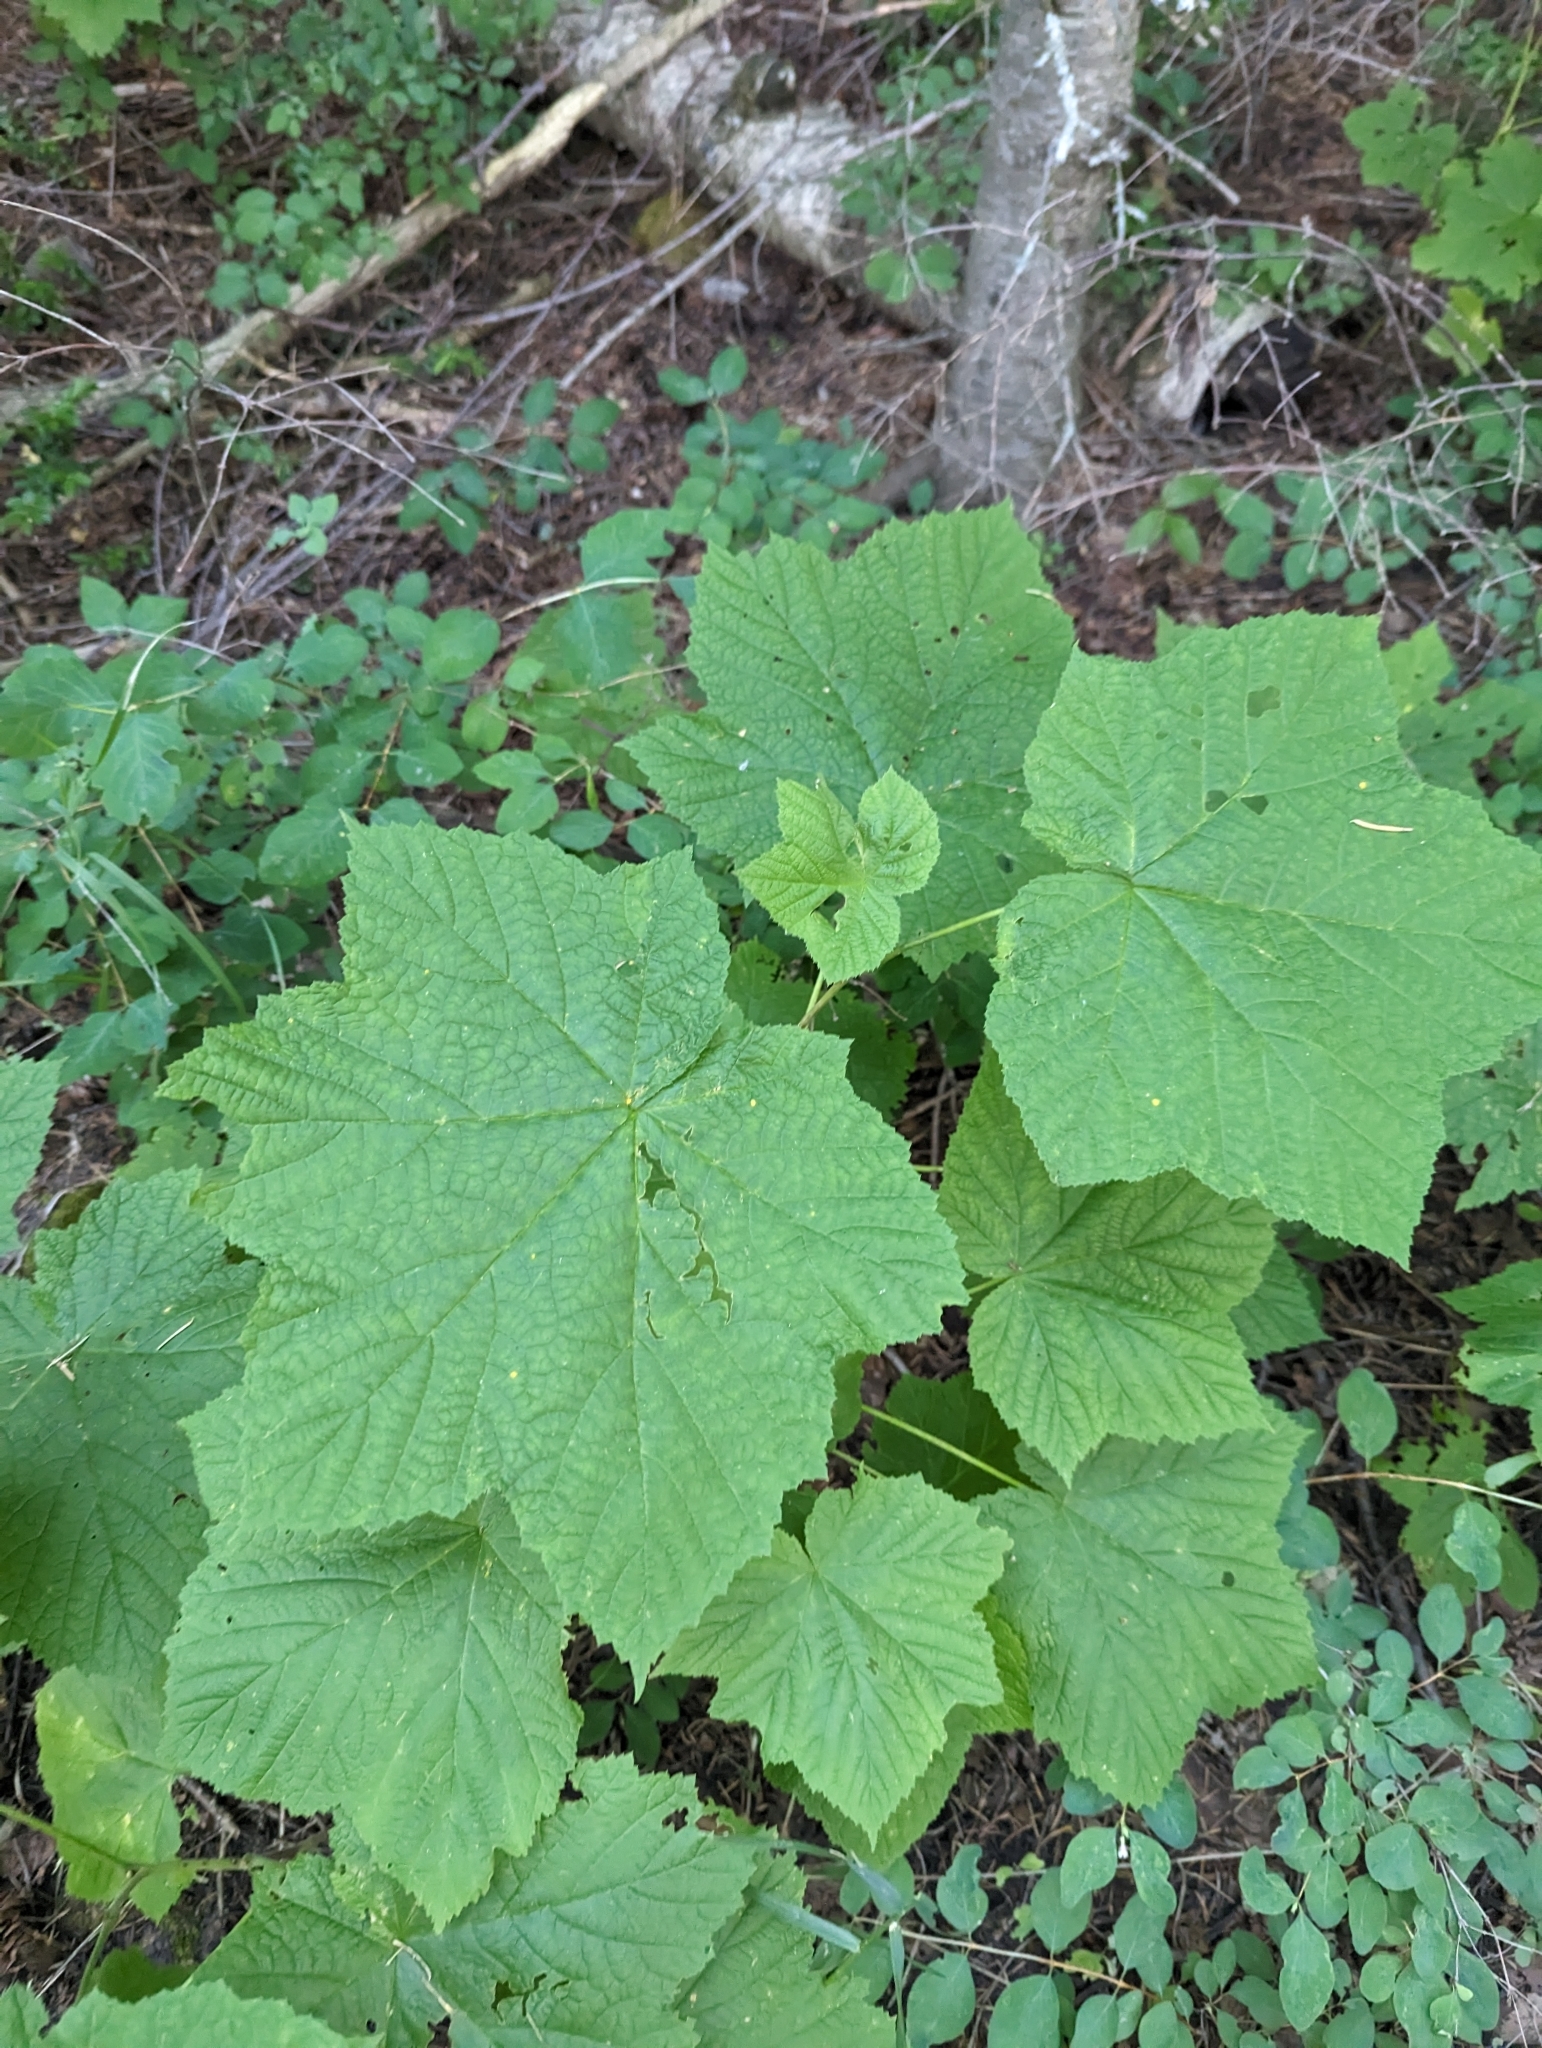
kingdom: Plantae
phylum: Tracheophyta
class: Magnoliopsida
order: Rosales
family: Rosaceae
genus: Rubus
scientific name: Rubus parviflorus
